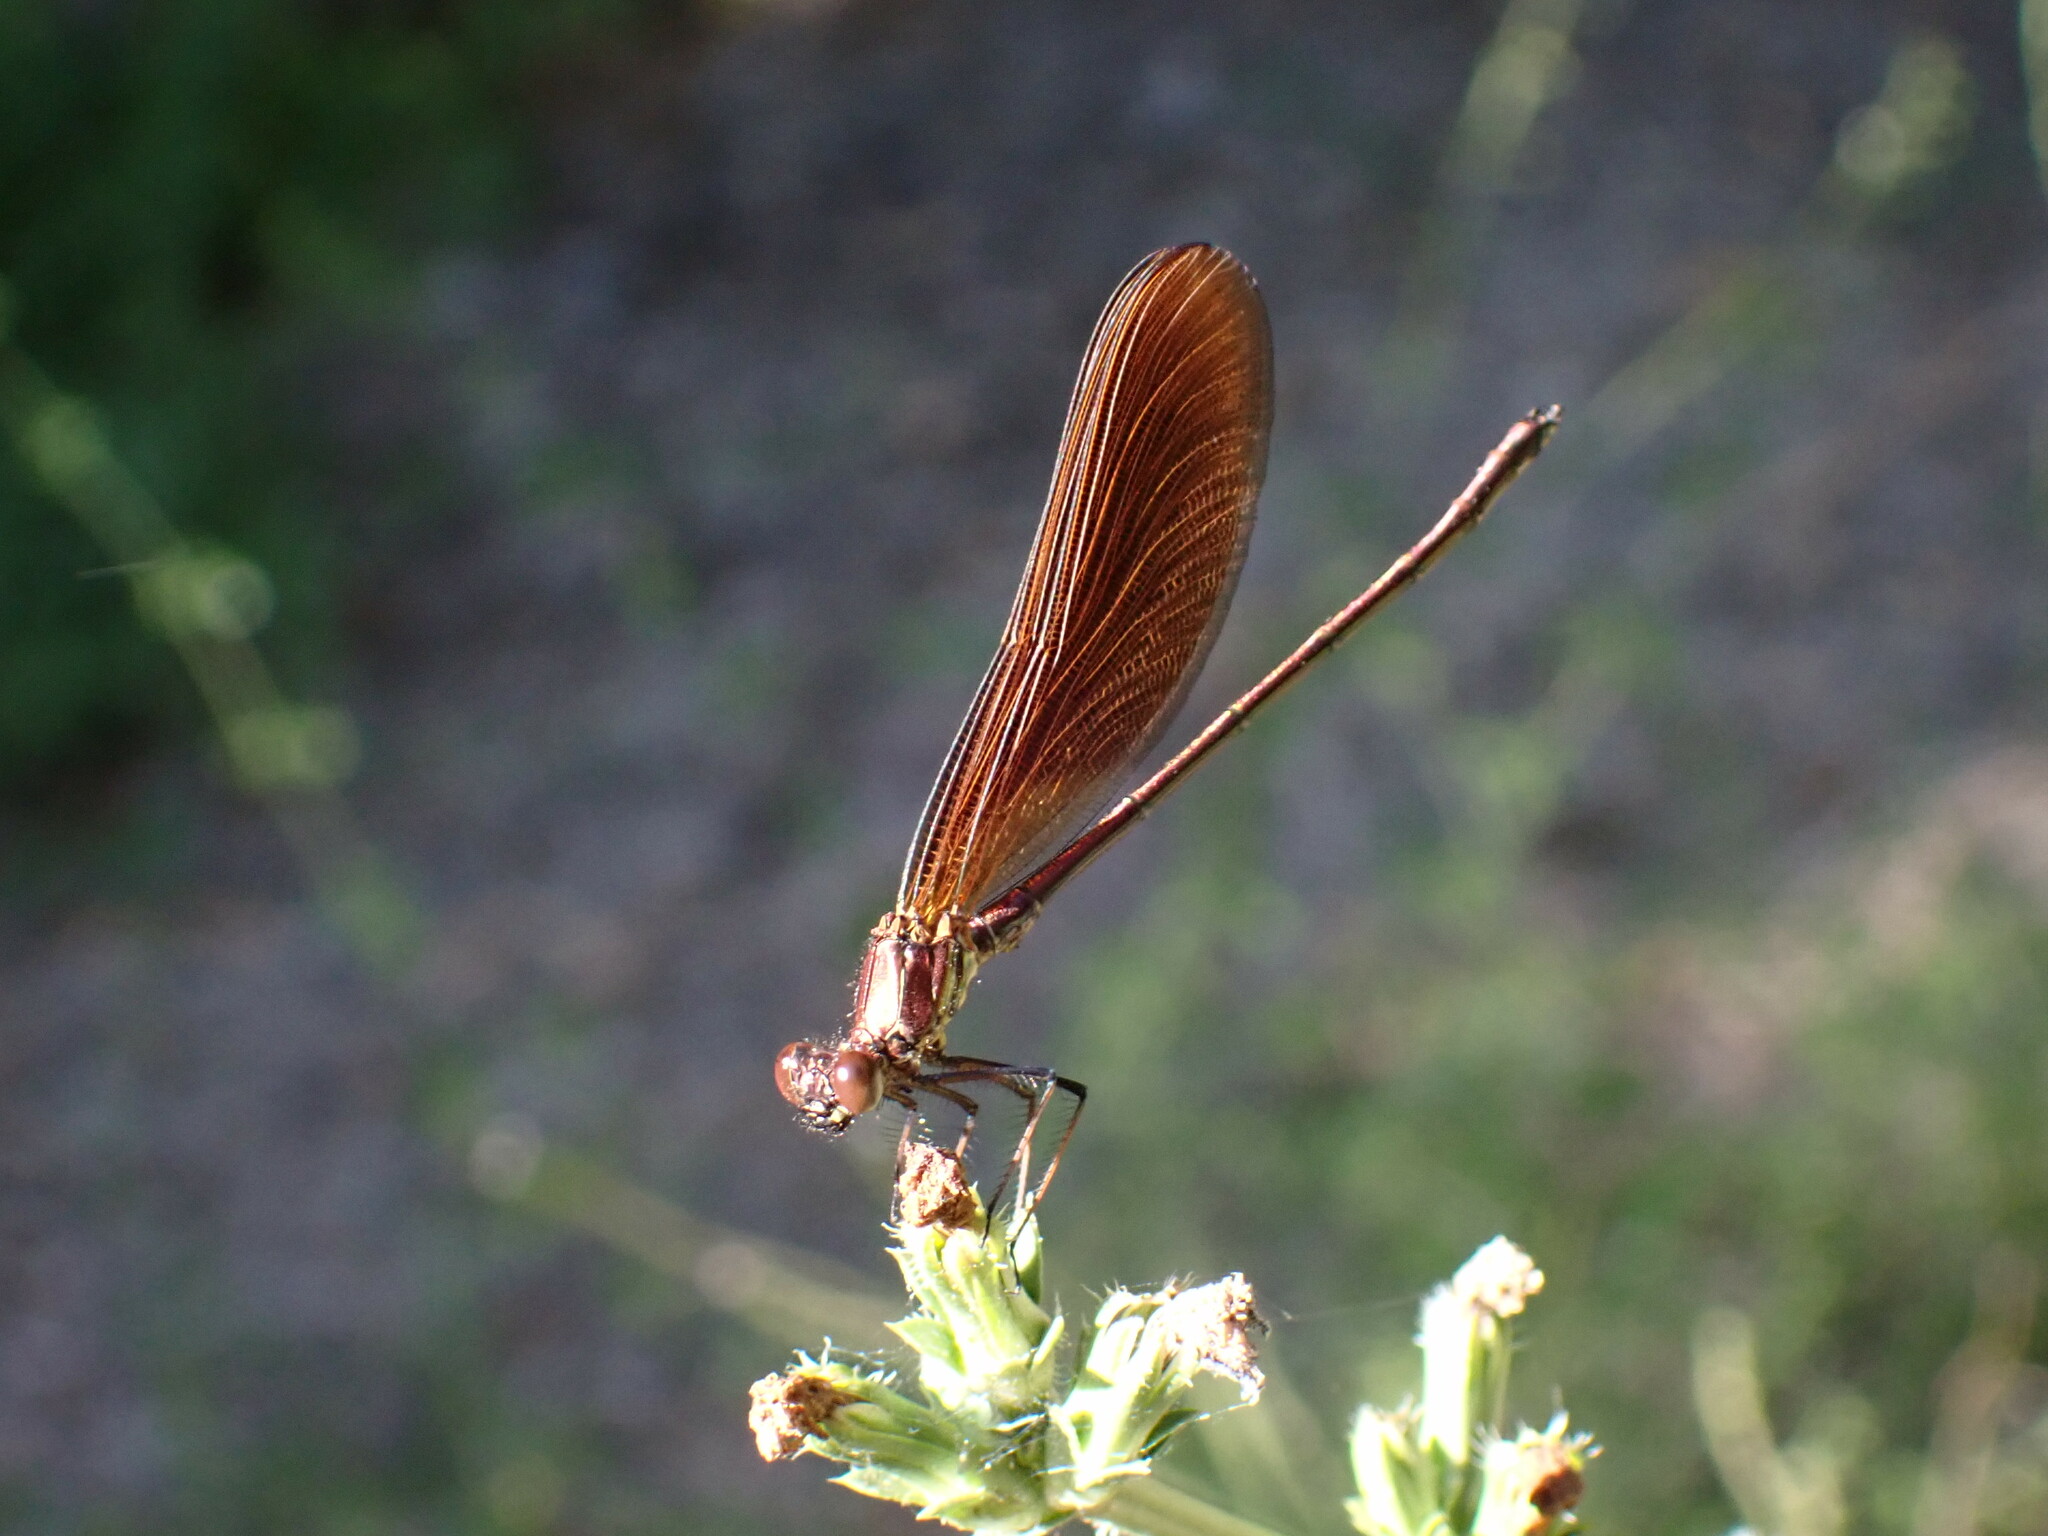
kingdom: Animalia
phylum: Arthropoda
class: Insecta
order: Odonata
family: Calopterygidae
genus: Calopteryx
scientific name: Calopteryx haemorrhoidalis
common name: Copper demoiselle
